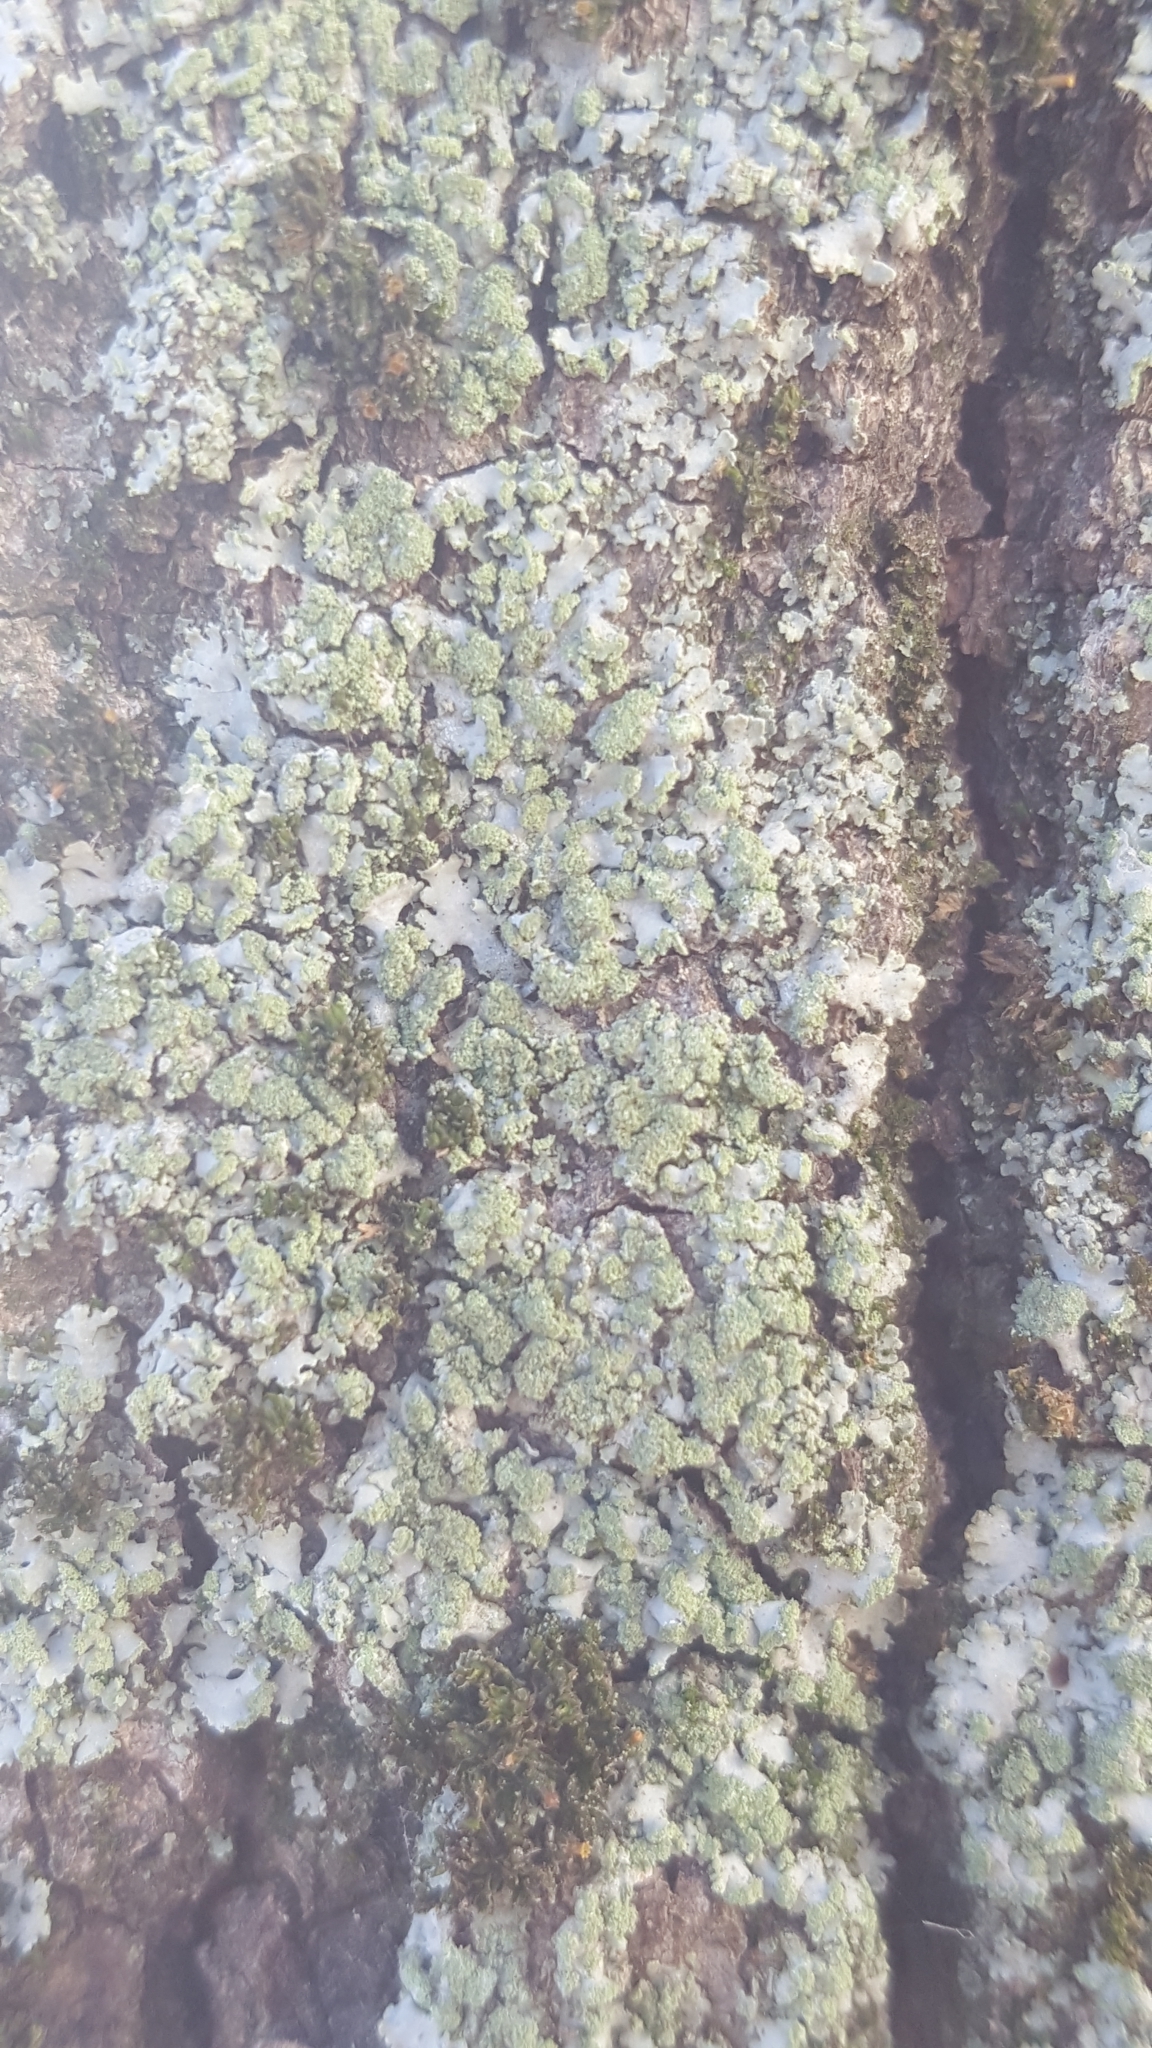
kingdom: Fungi
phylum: Ascomycota
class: Lecanoromycetes
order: Caliciales
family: Physciaceae
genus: Phaeophyscia
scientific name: Phaeophyscia orbicularis
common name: Mealy shadow lichen
